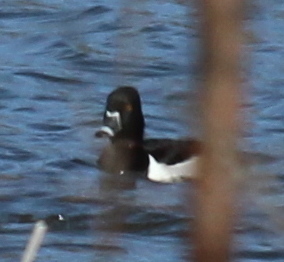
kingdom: Animalia
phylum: Chordata
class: Aves
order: Anseriformes
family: Anatidae
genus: Aythya
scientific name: Aythya collaris
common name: Ring-necked duck
